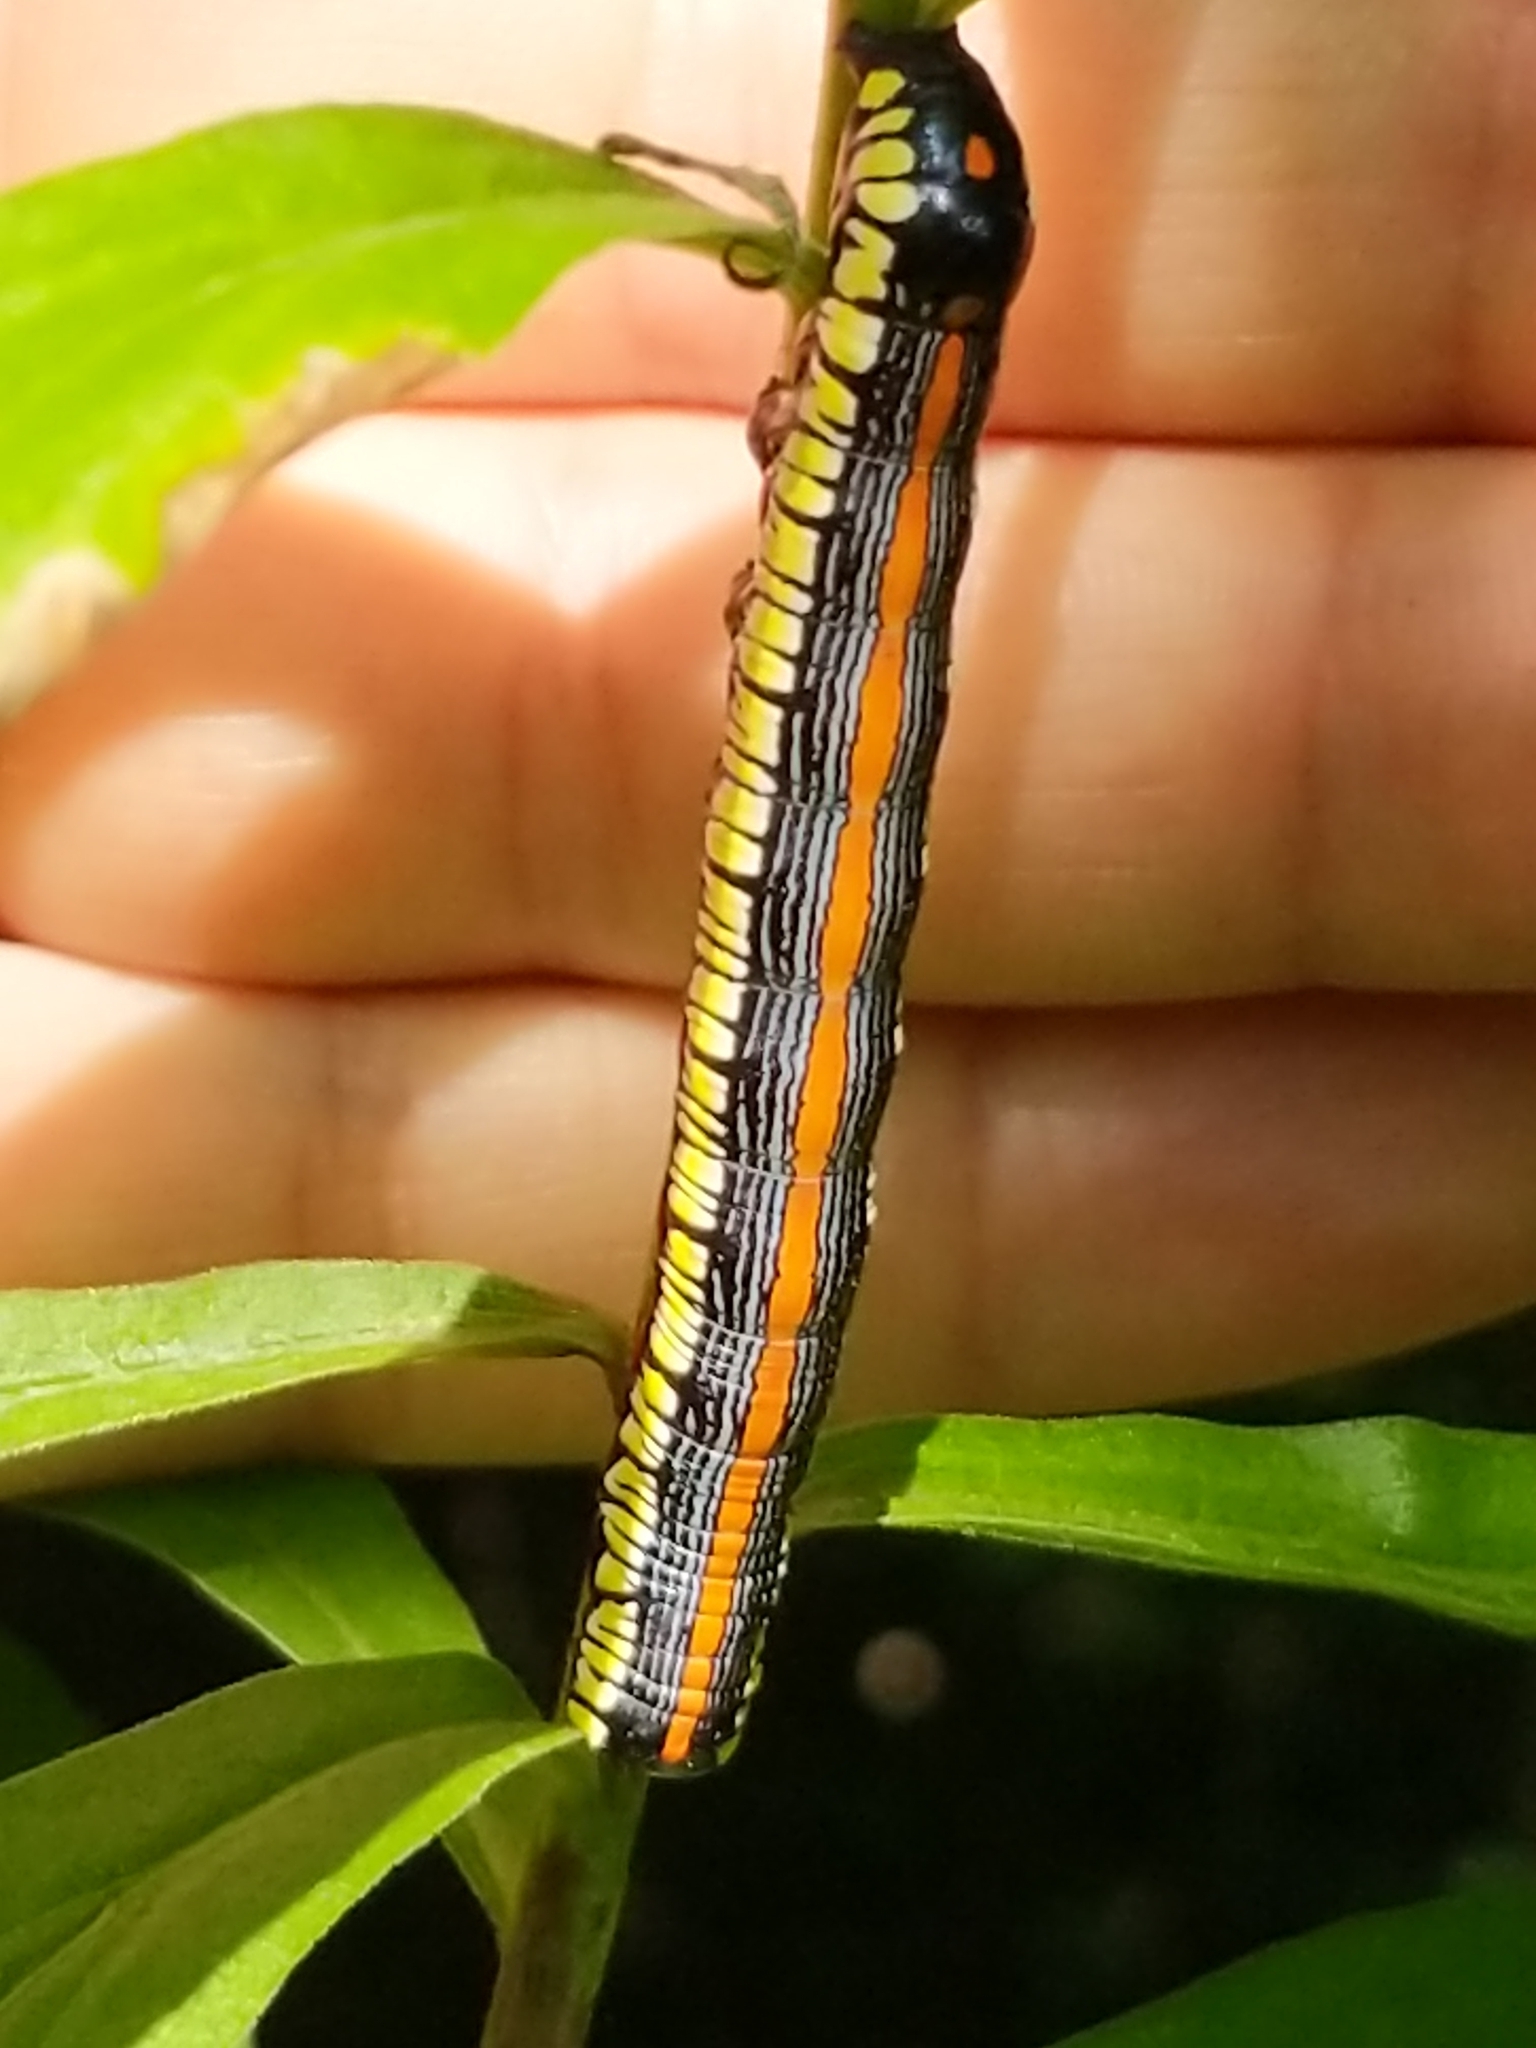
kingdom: Animalia
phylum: Arthropoda
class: Insecta
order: Lepidoptera
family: Noctuidae
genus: Cucullia
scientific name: Cucullia convexipennis
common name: Brown-hooded owlet
